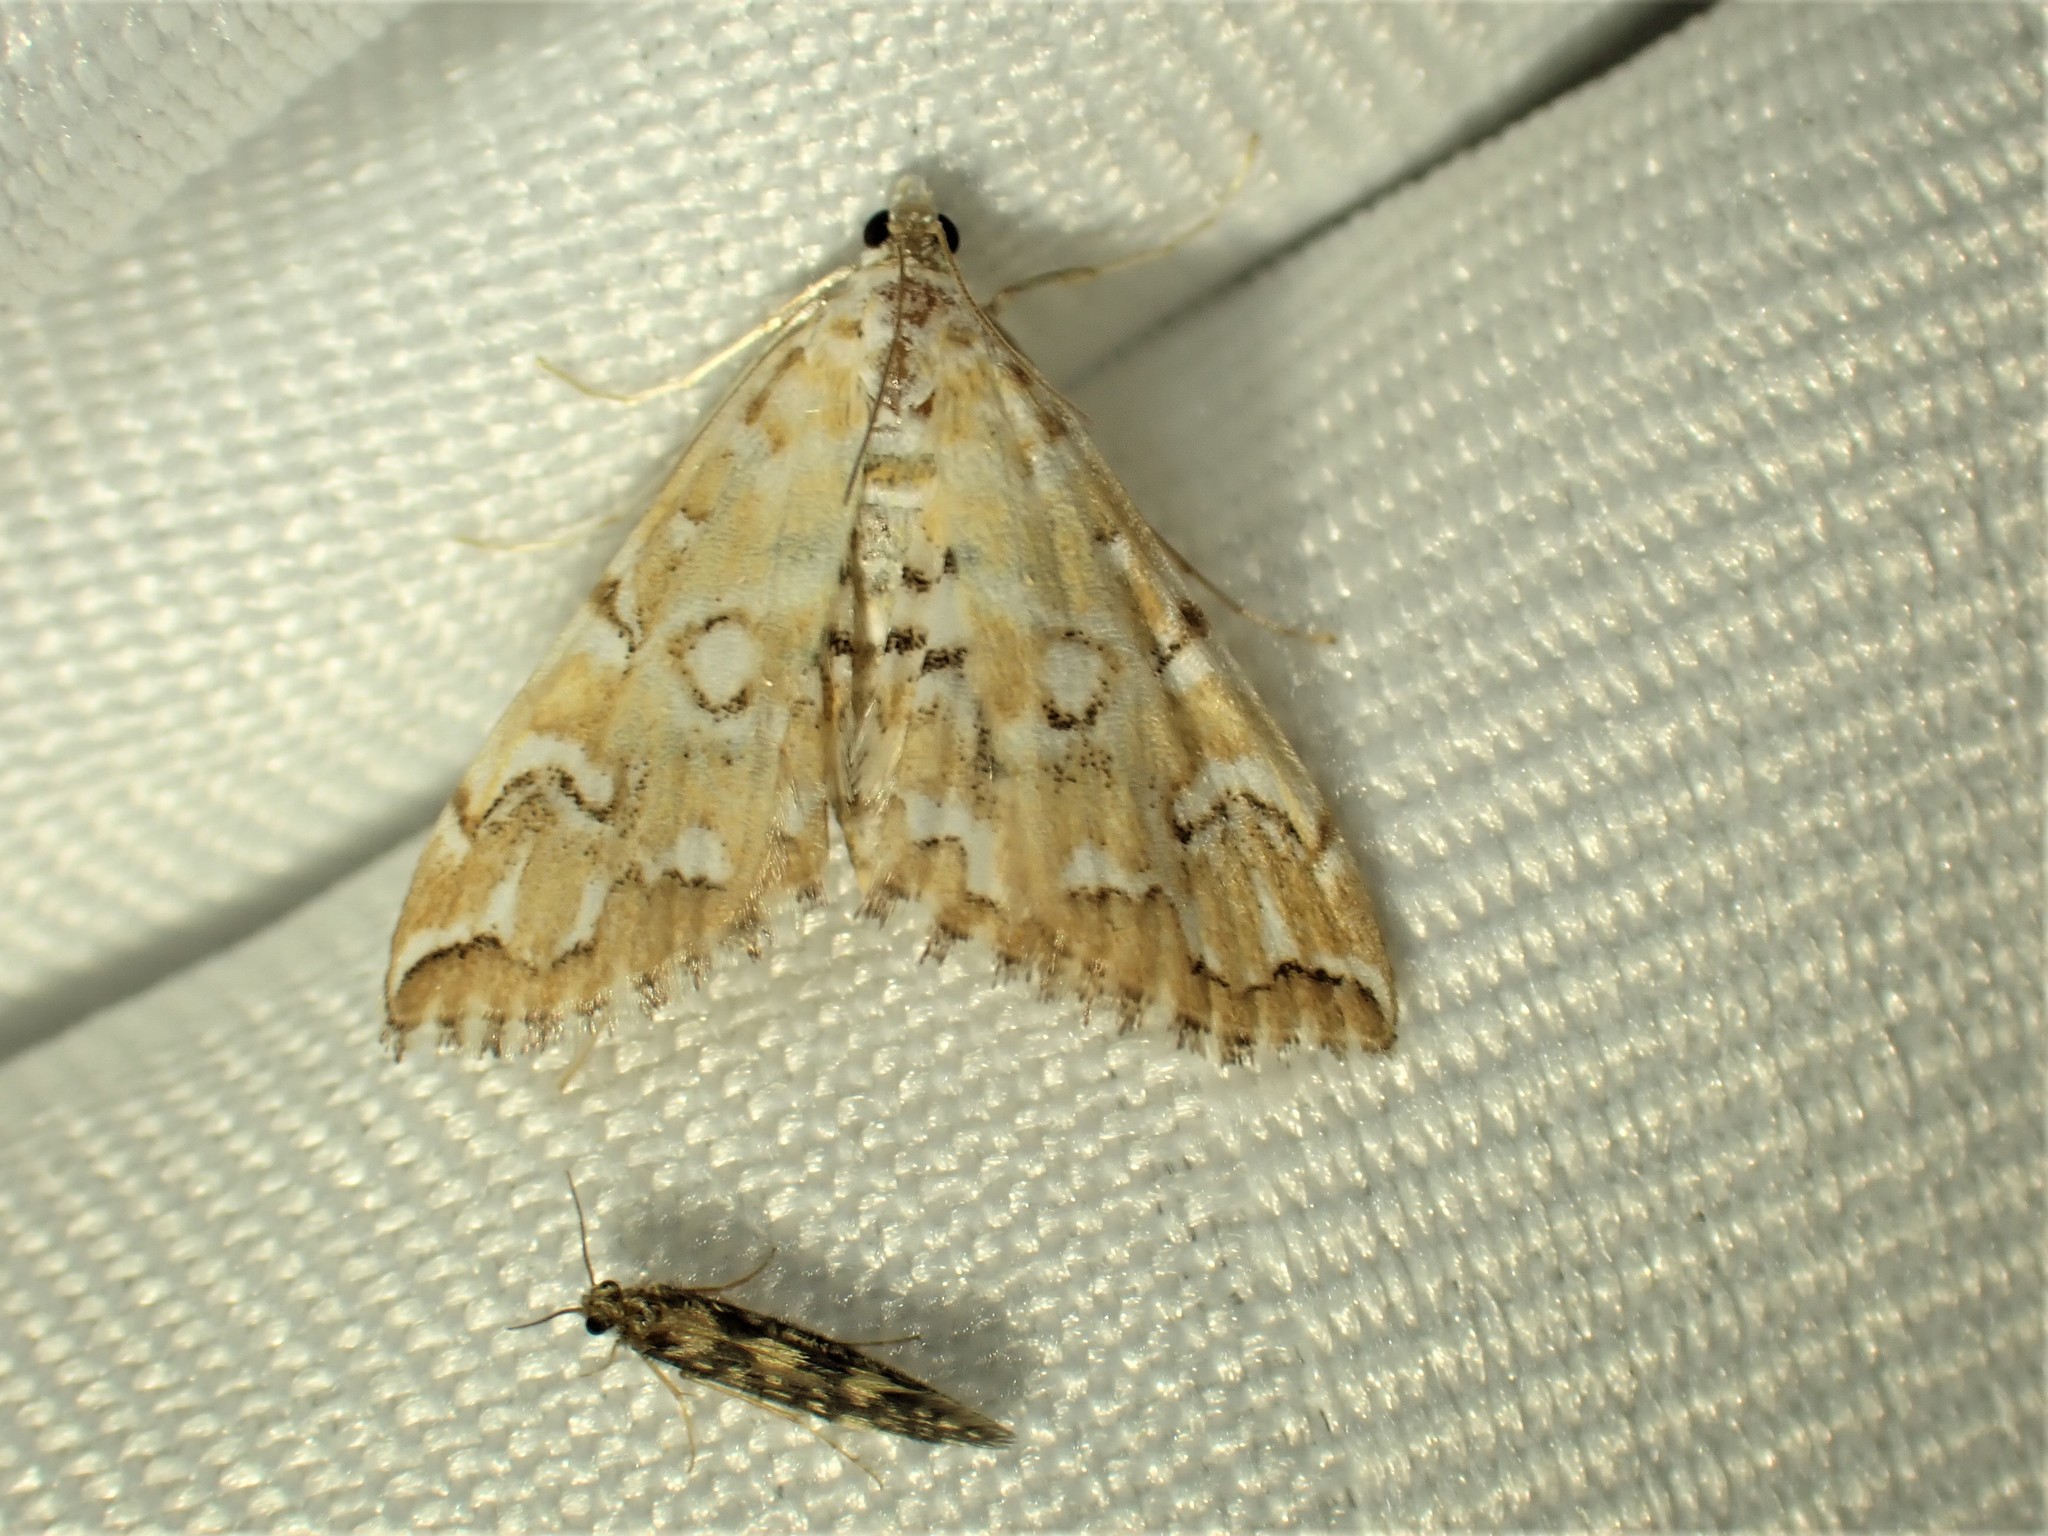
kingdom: Animalia
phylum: Arthropoda
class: Insecta
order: Lepidoptera
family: Crambidae
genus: Elophila
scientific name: Elophila icciusalis
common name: Pondside pyralid moth
